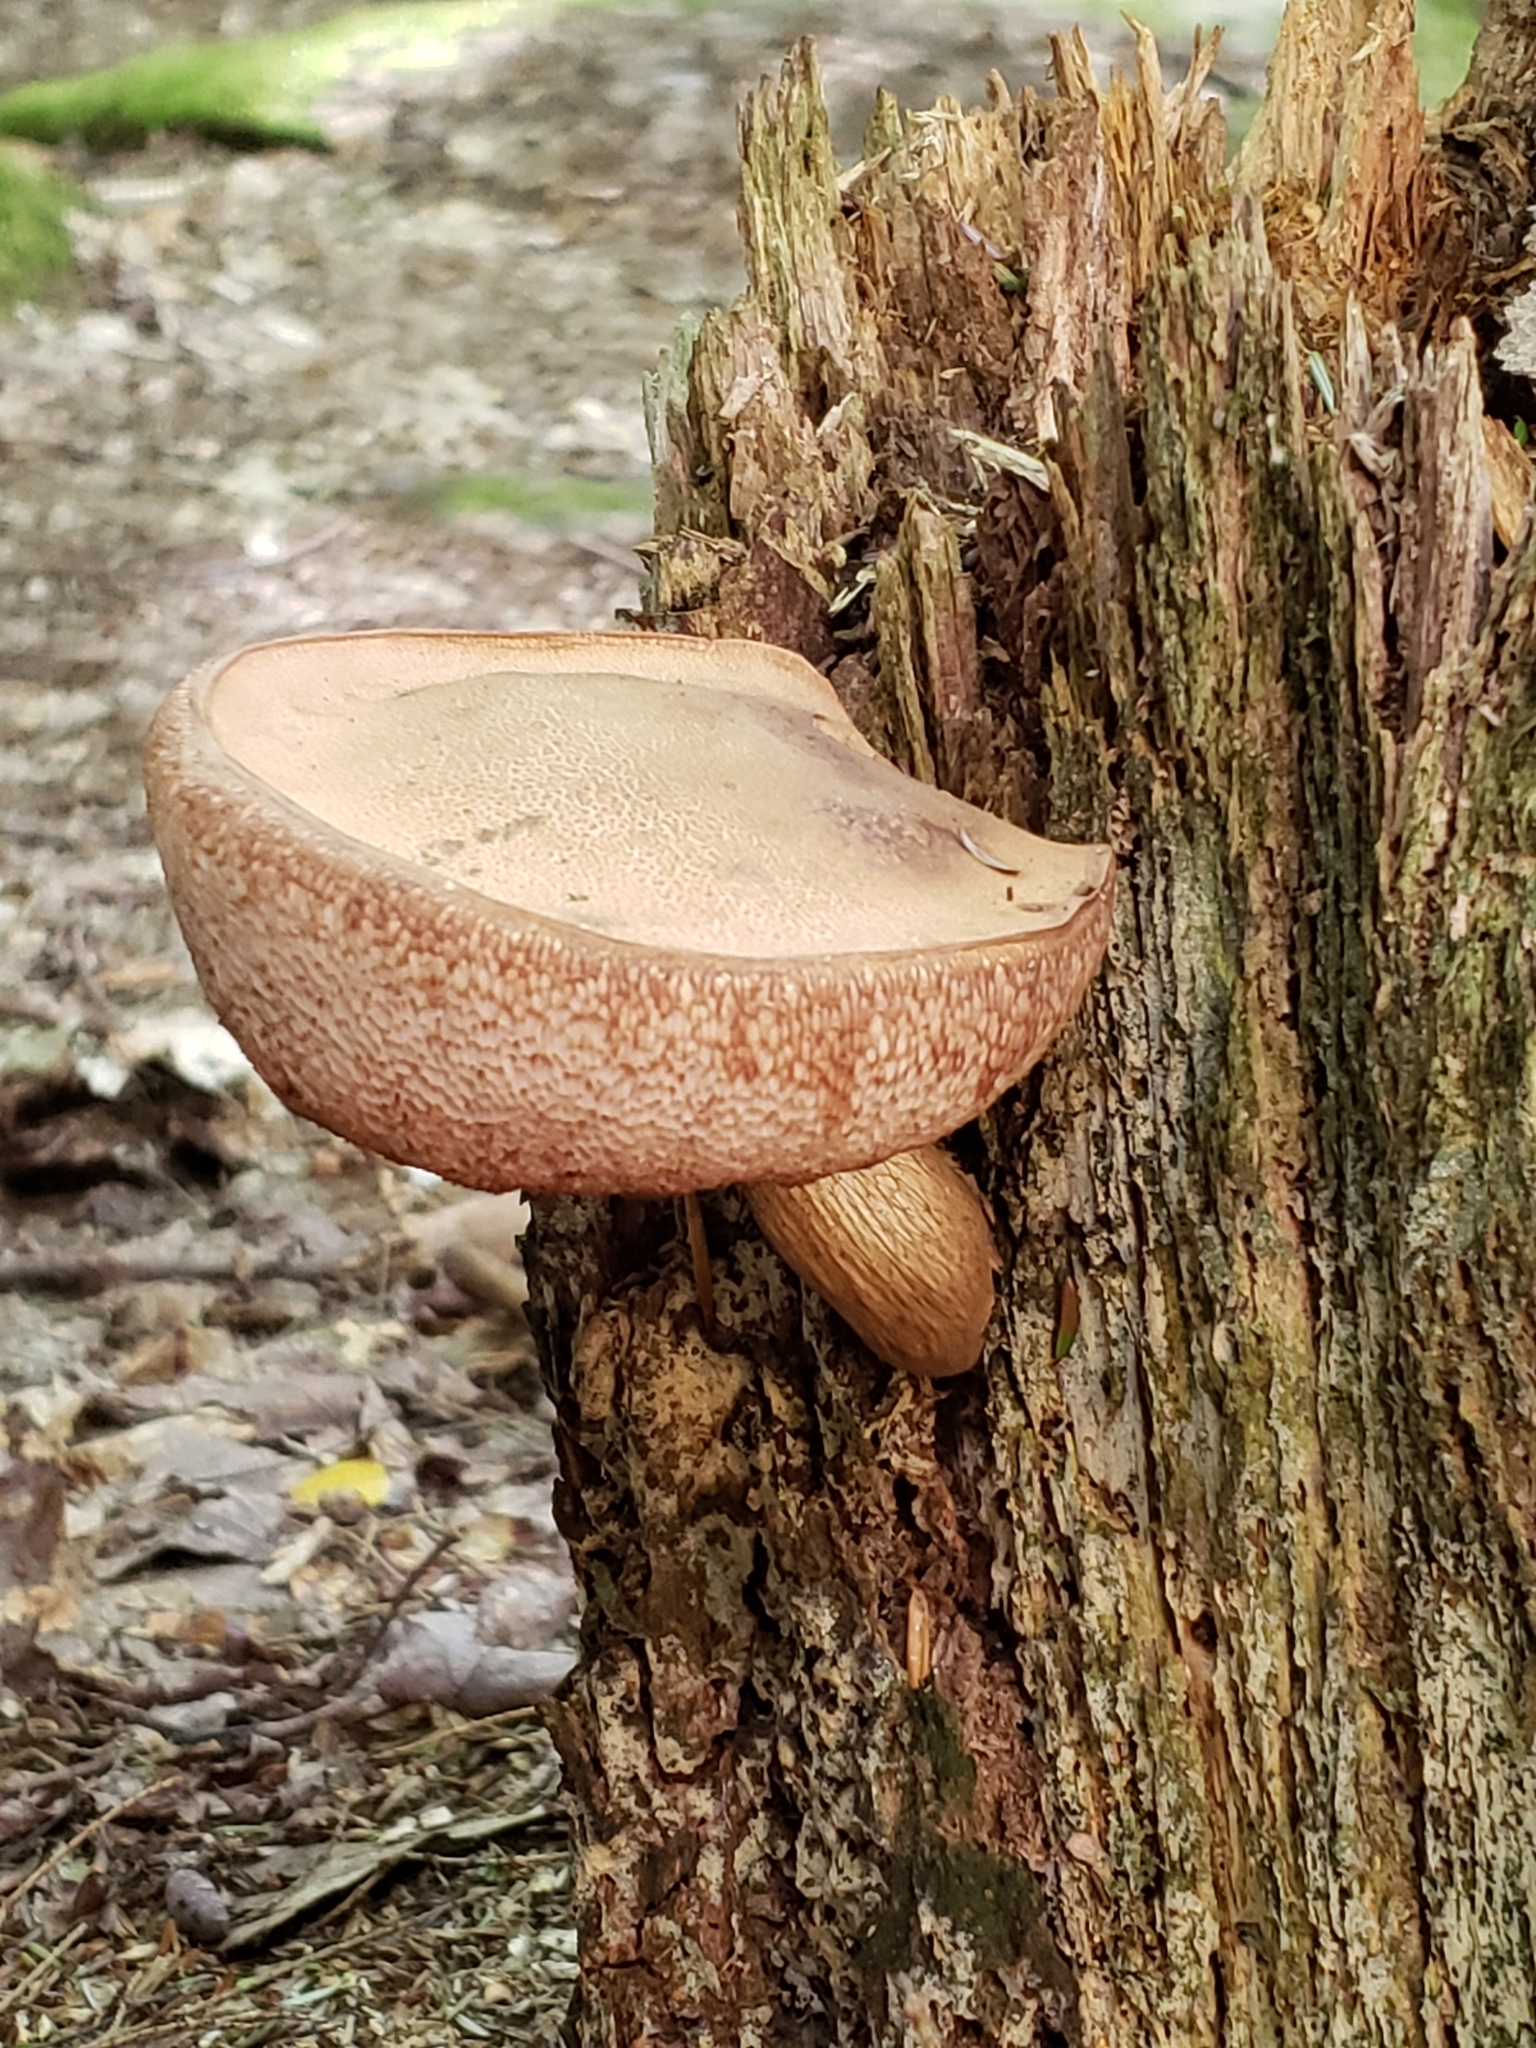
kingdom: Fungi
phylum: Basidiomycota
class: Agaricomycetes
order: Boletales
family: Boletaceae
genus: Tylopilus
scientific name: Tylopilus felleus
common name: Bitter bolete
